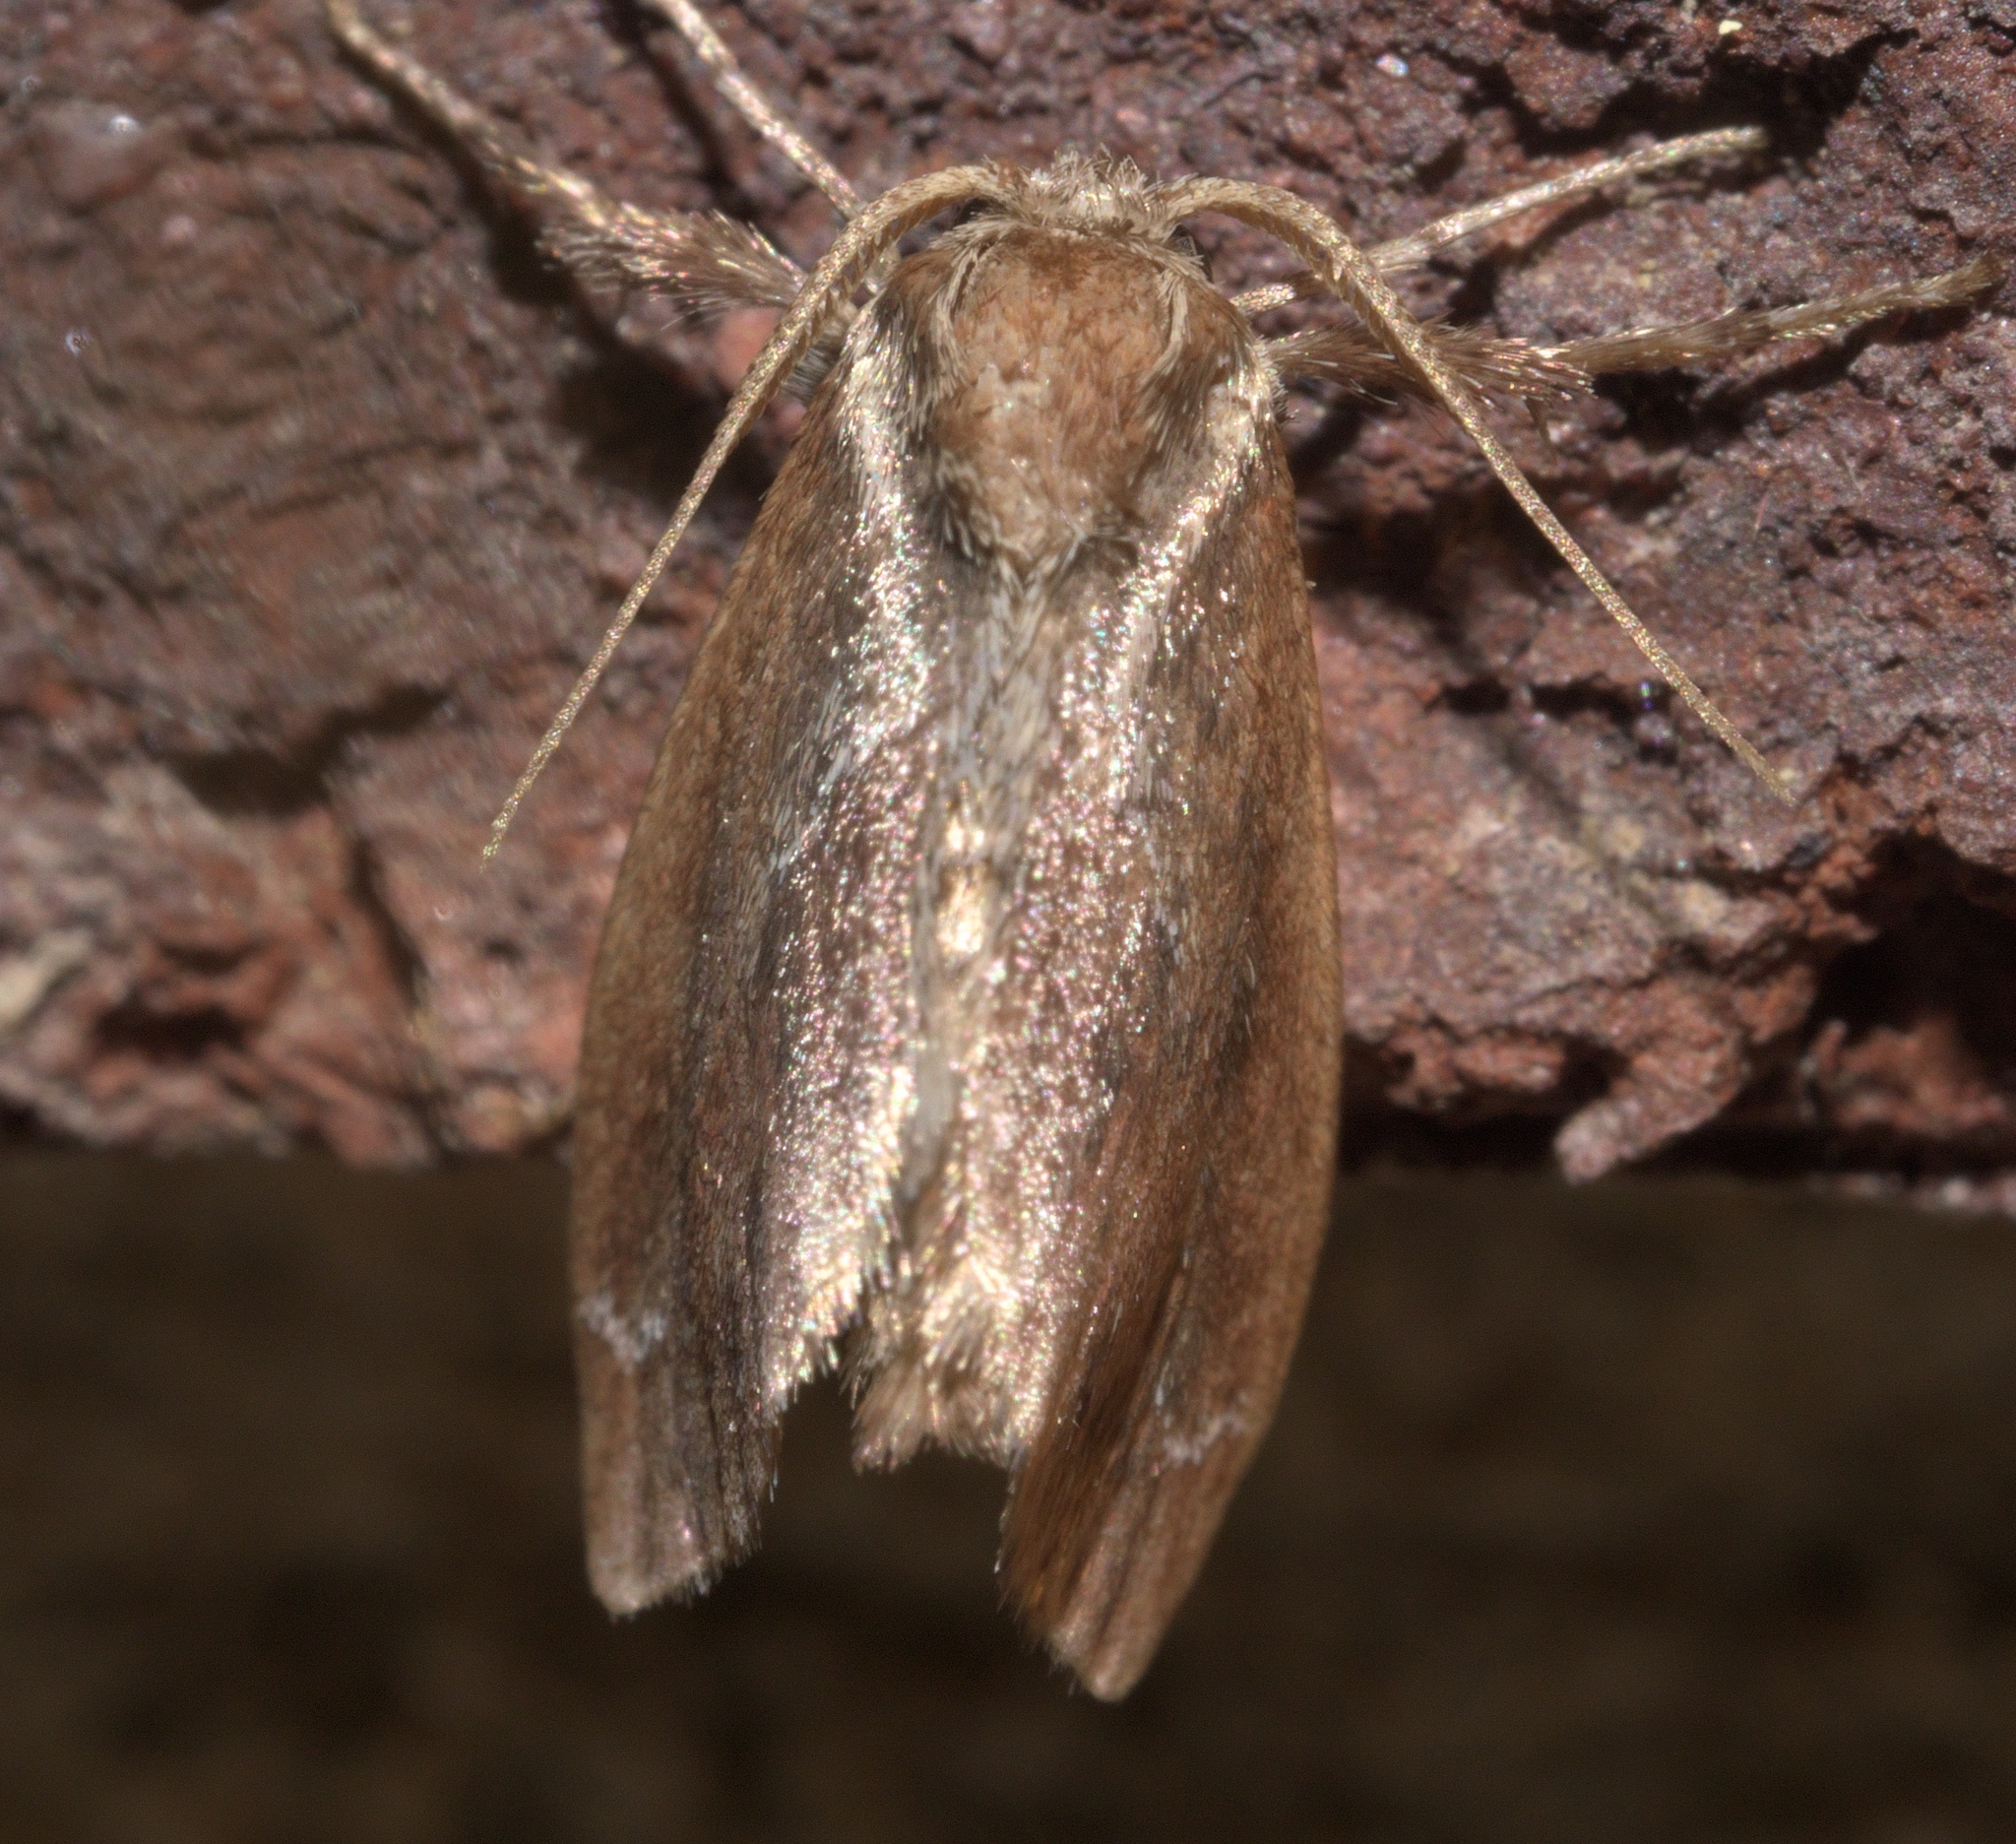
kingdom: Animalia
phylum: Arthropoda
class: Insecta
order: Lepidoptera
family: Limacodidae
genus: Adoneta
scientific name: Adoneta spinuloides
